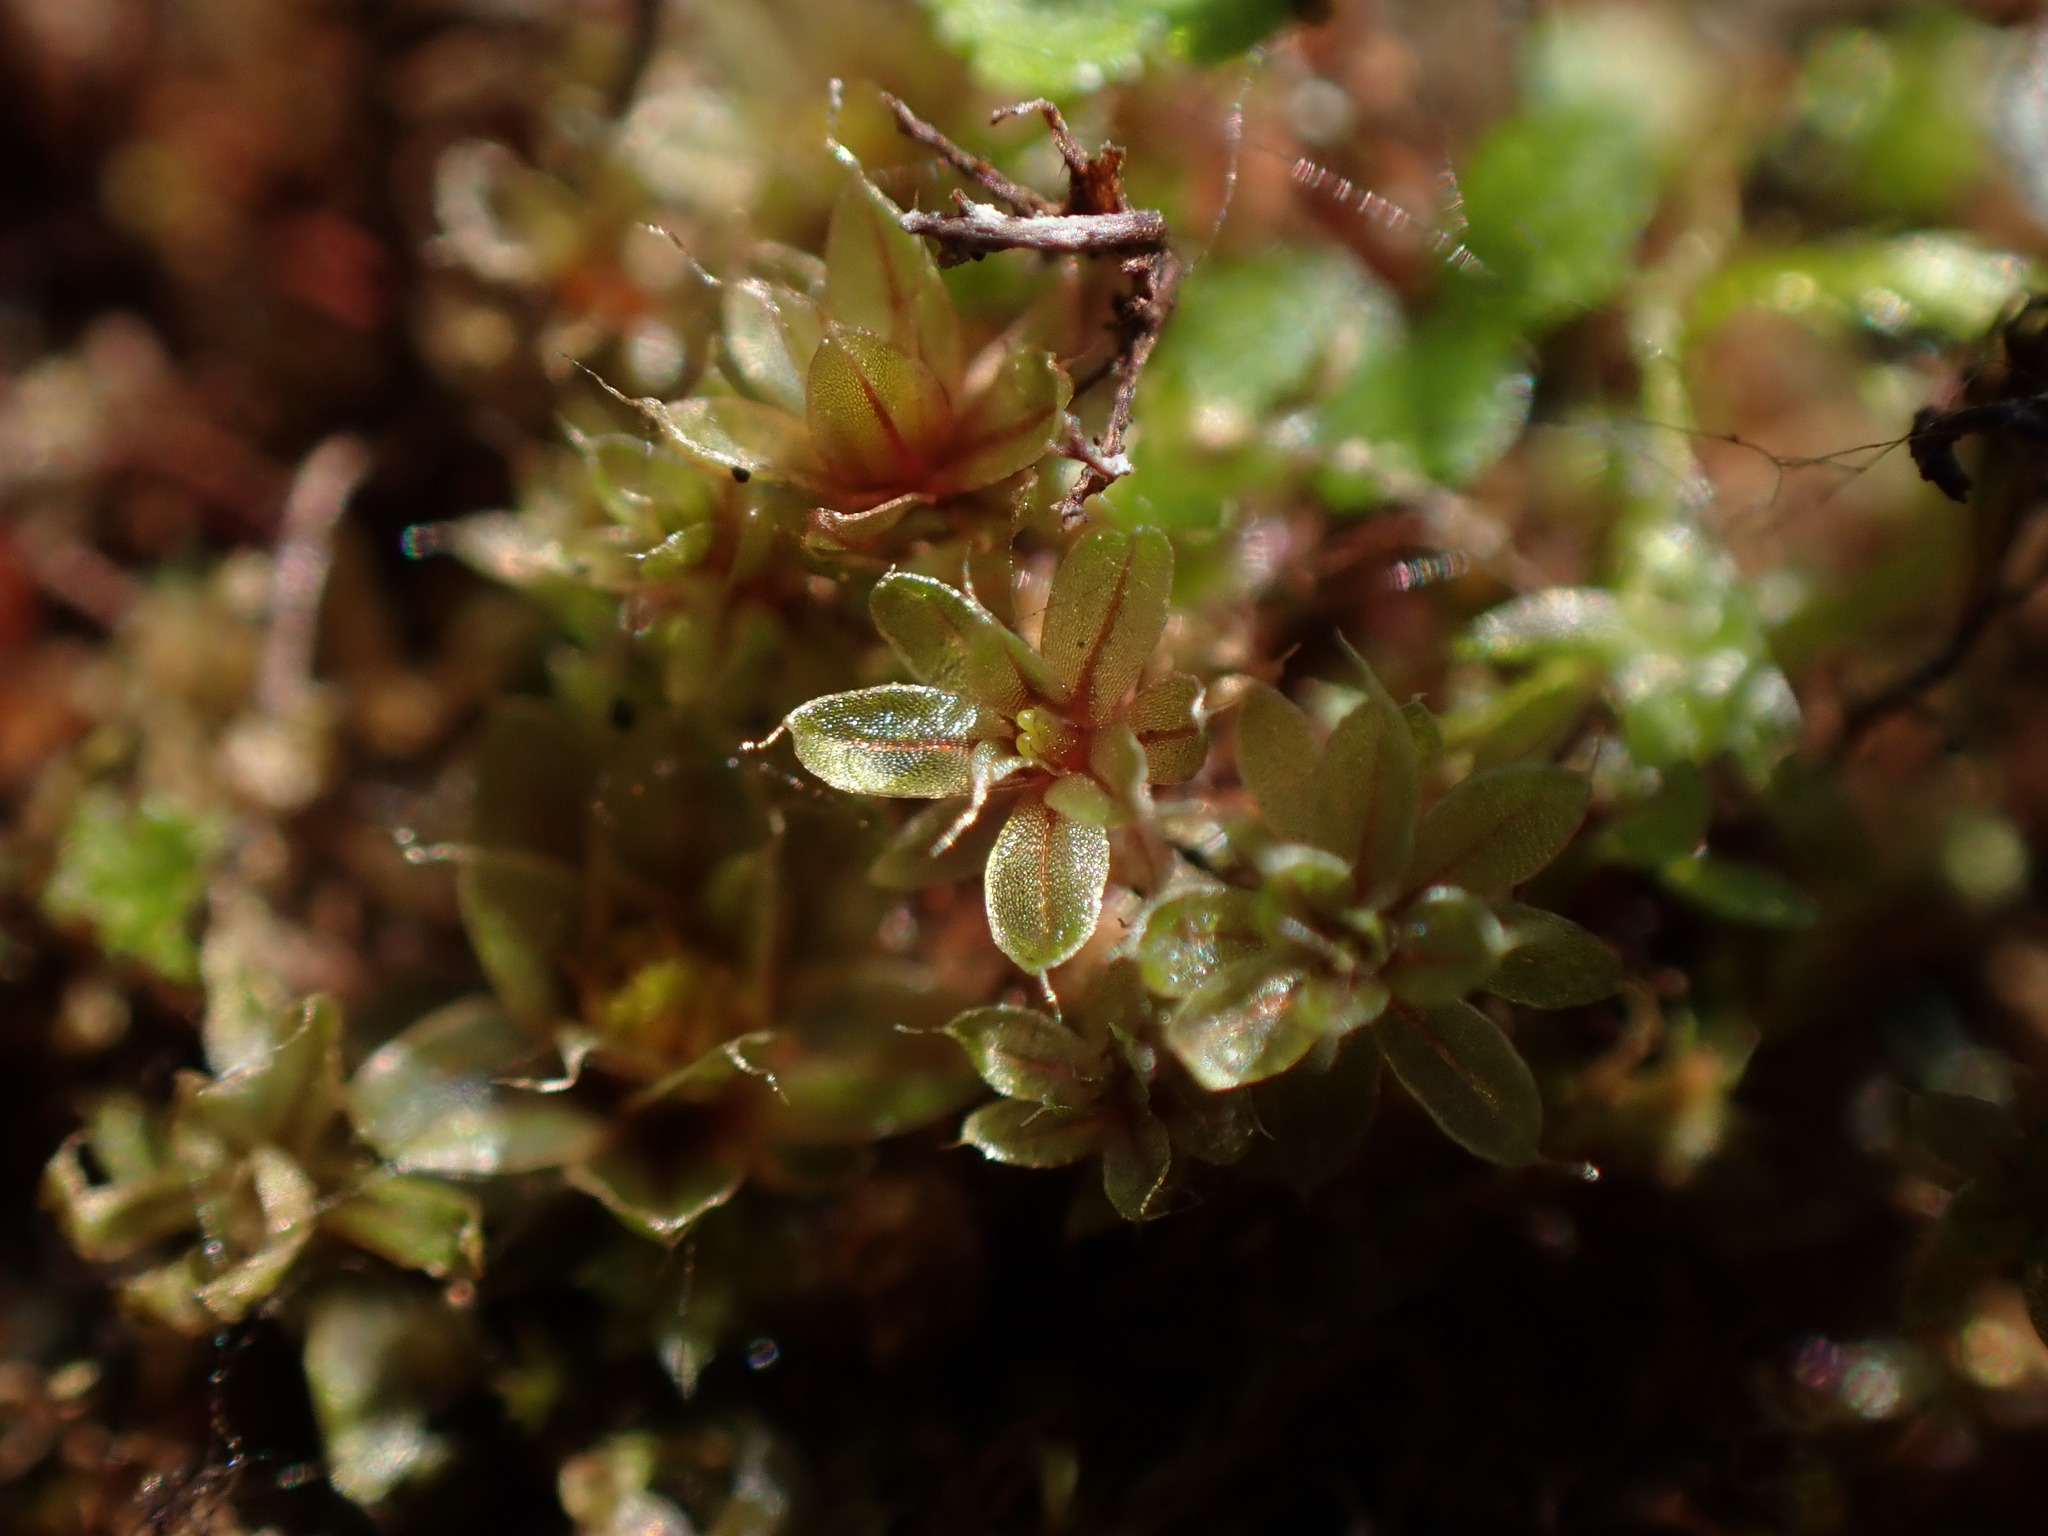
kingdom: Plantae
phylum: Bryophyta
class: Bryopsida
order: Bryales
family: Bryaceae
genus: Rosulabryum
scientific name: Rosulabryum capillare
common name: Capillary thread-moss
